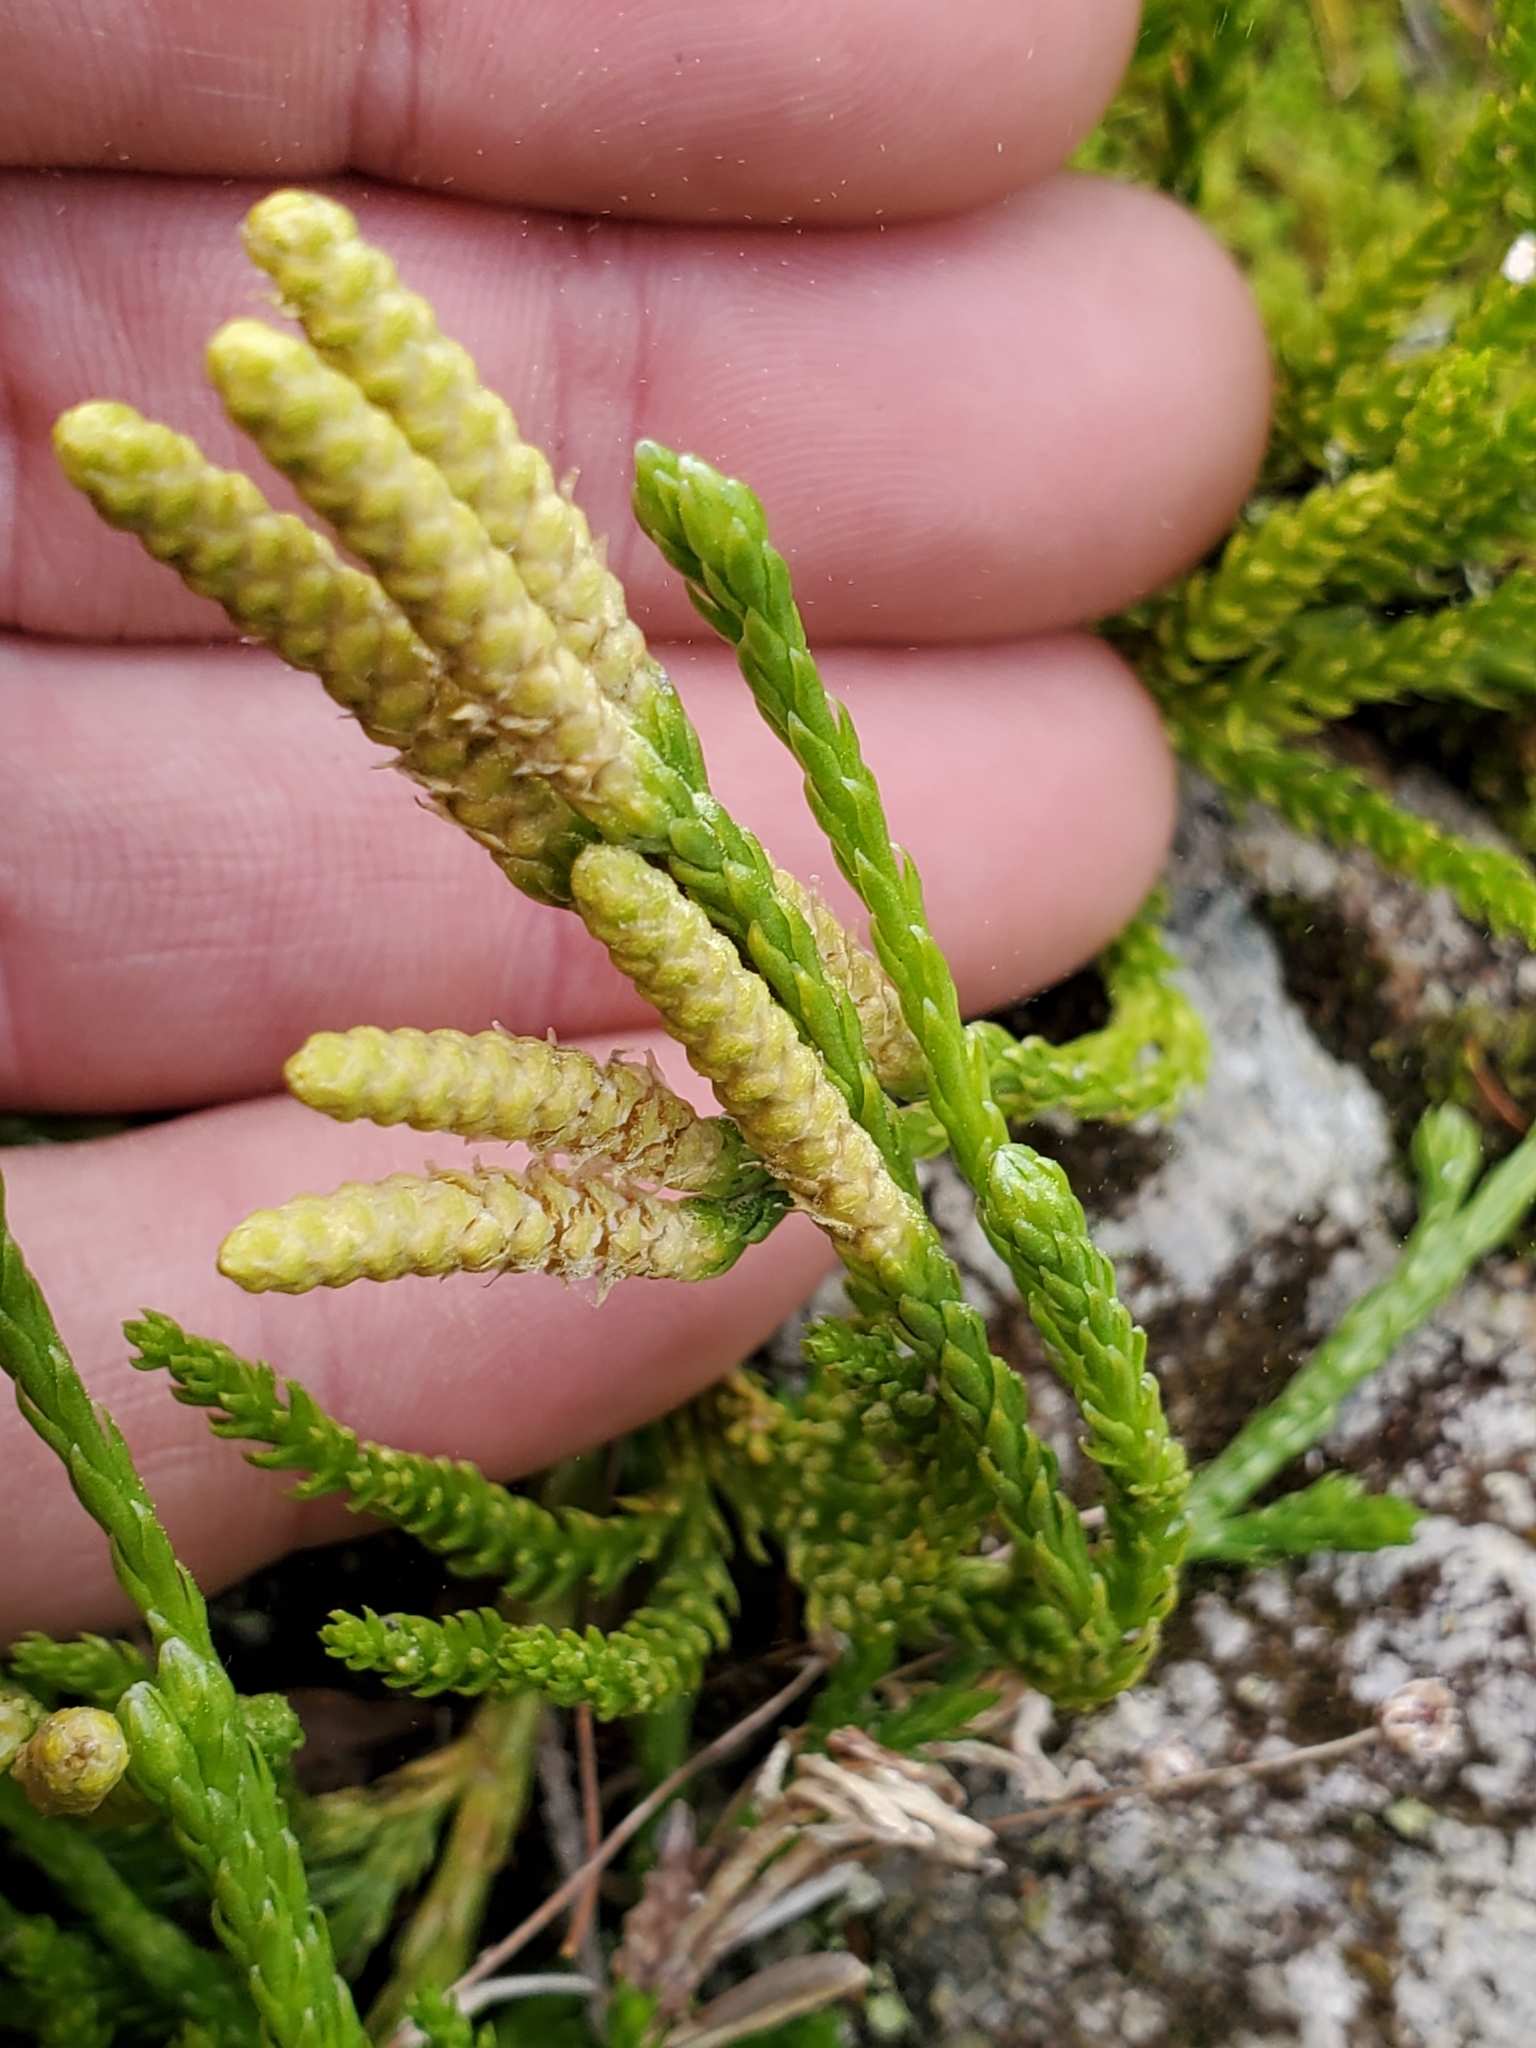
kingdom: Plantae
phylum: Tracheophyta
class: Lycopodiopsida
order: Lycopodiales
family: Lycopodiaceae
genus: Diphasiastrum
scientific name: Diphasiastrum alpinum
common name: Alpine clubmoss
